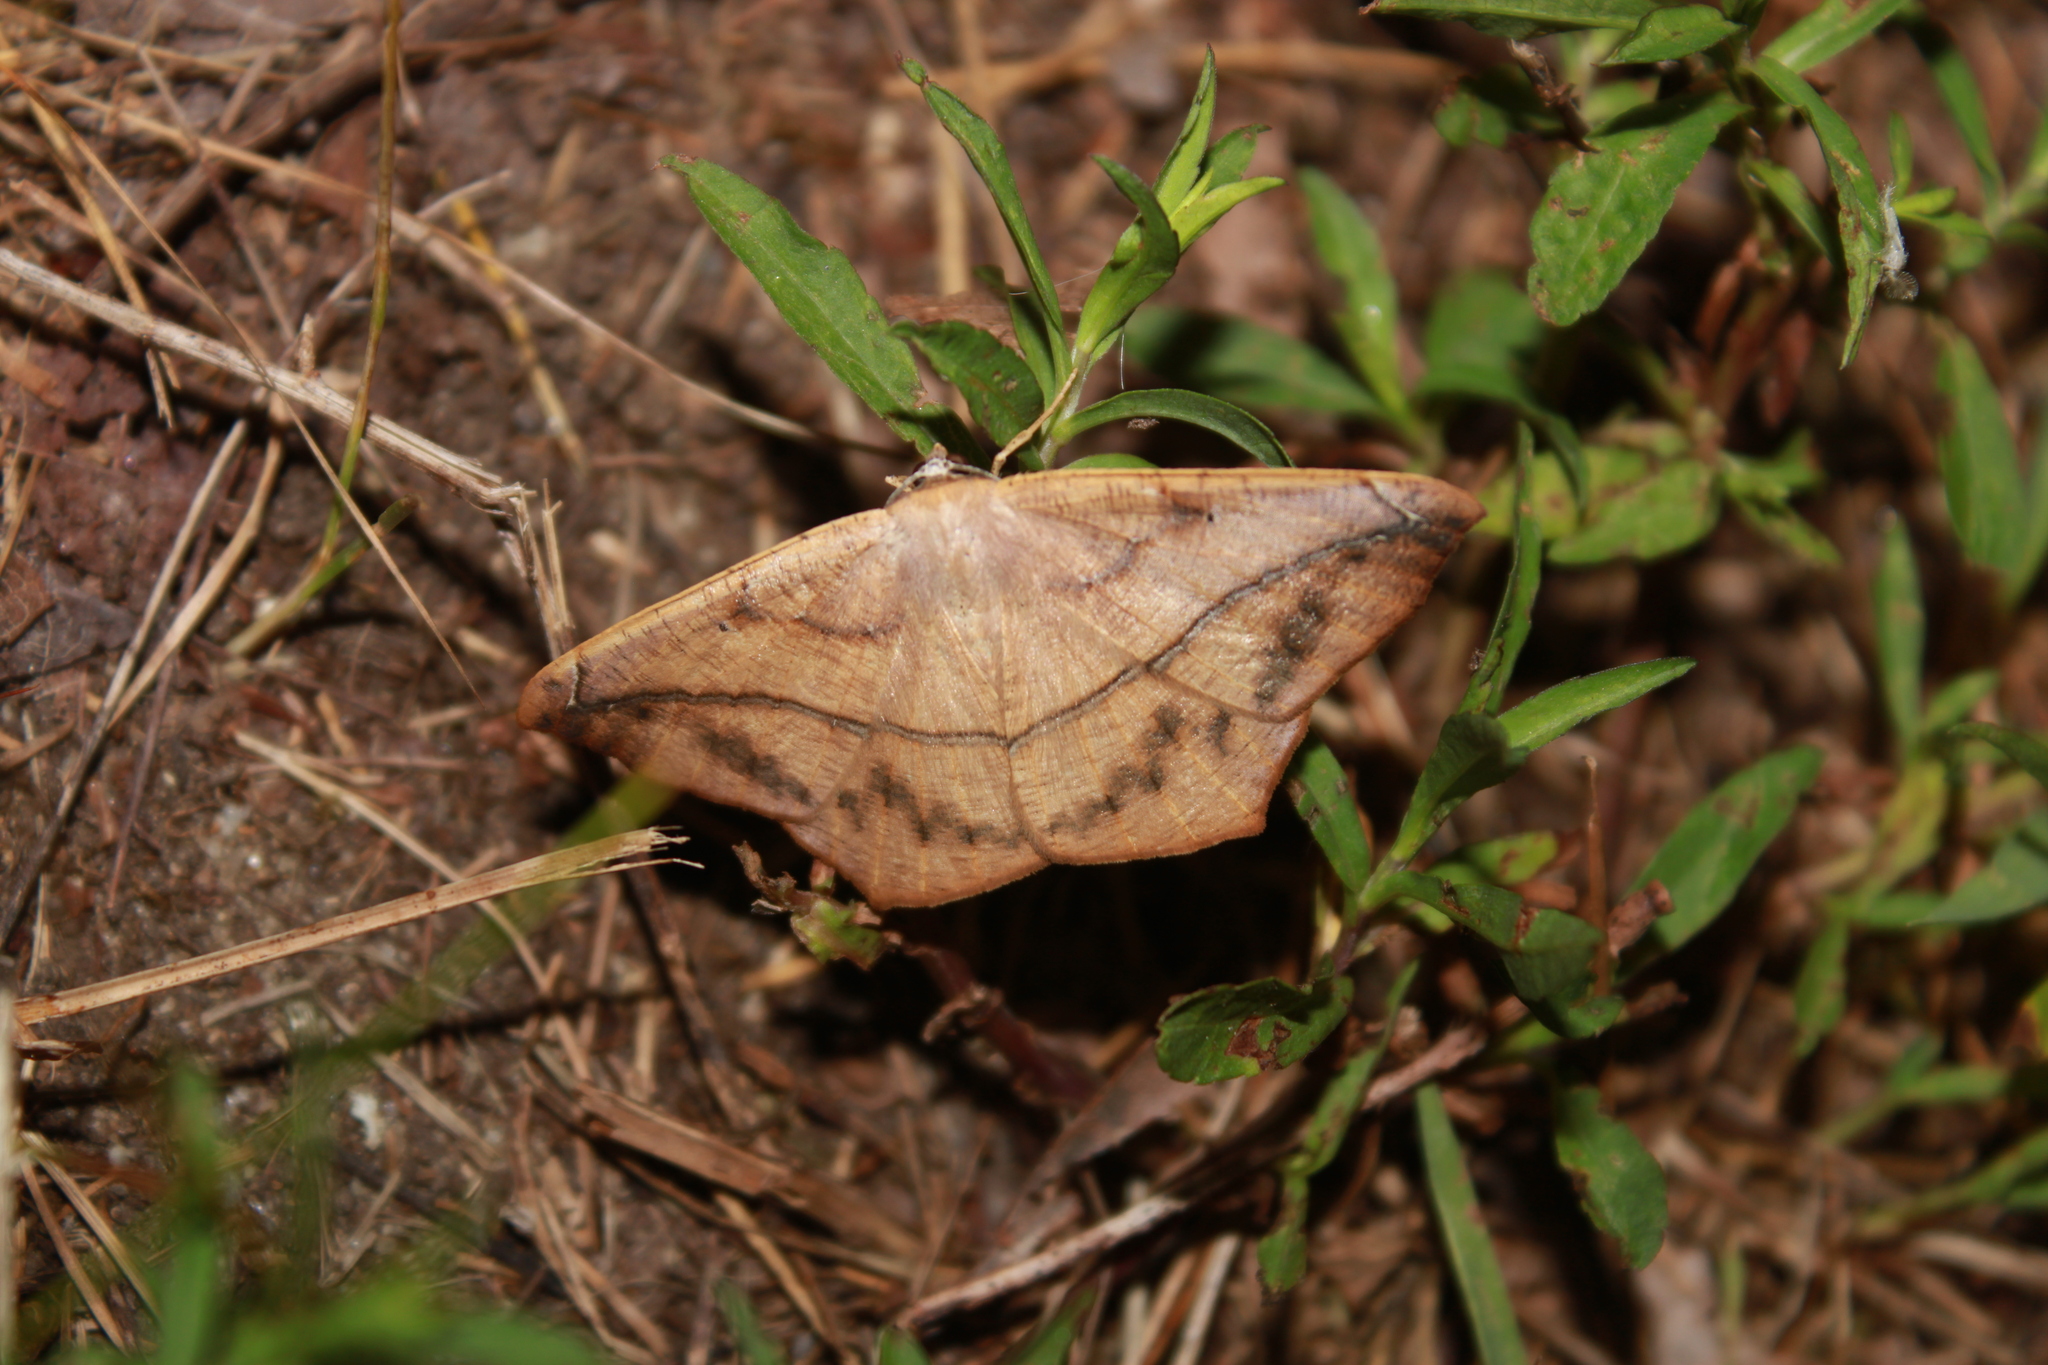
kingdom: Animalia
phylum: Arthropoda
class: Insecta
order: Lepidoptera
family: Geometridae
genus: Prochoerodes
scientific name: Prochoerodes lineola
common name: Large maple spanworm
